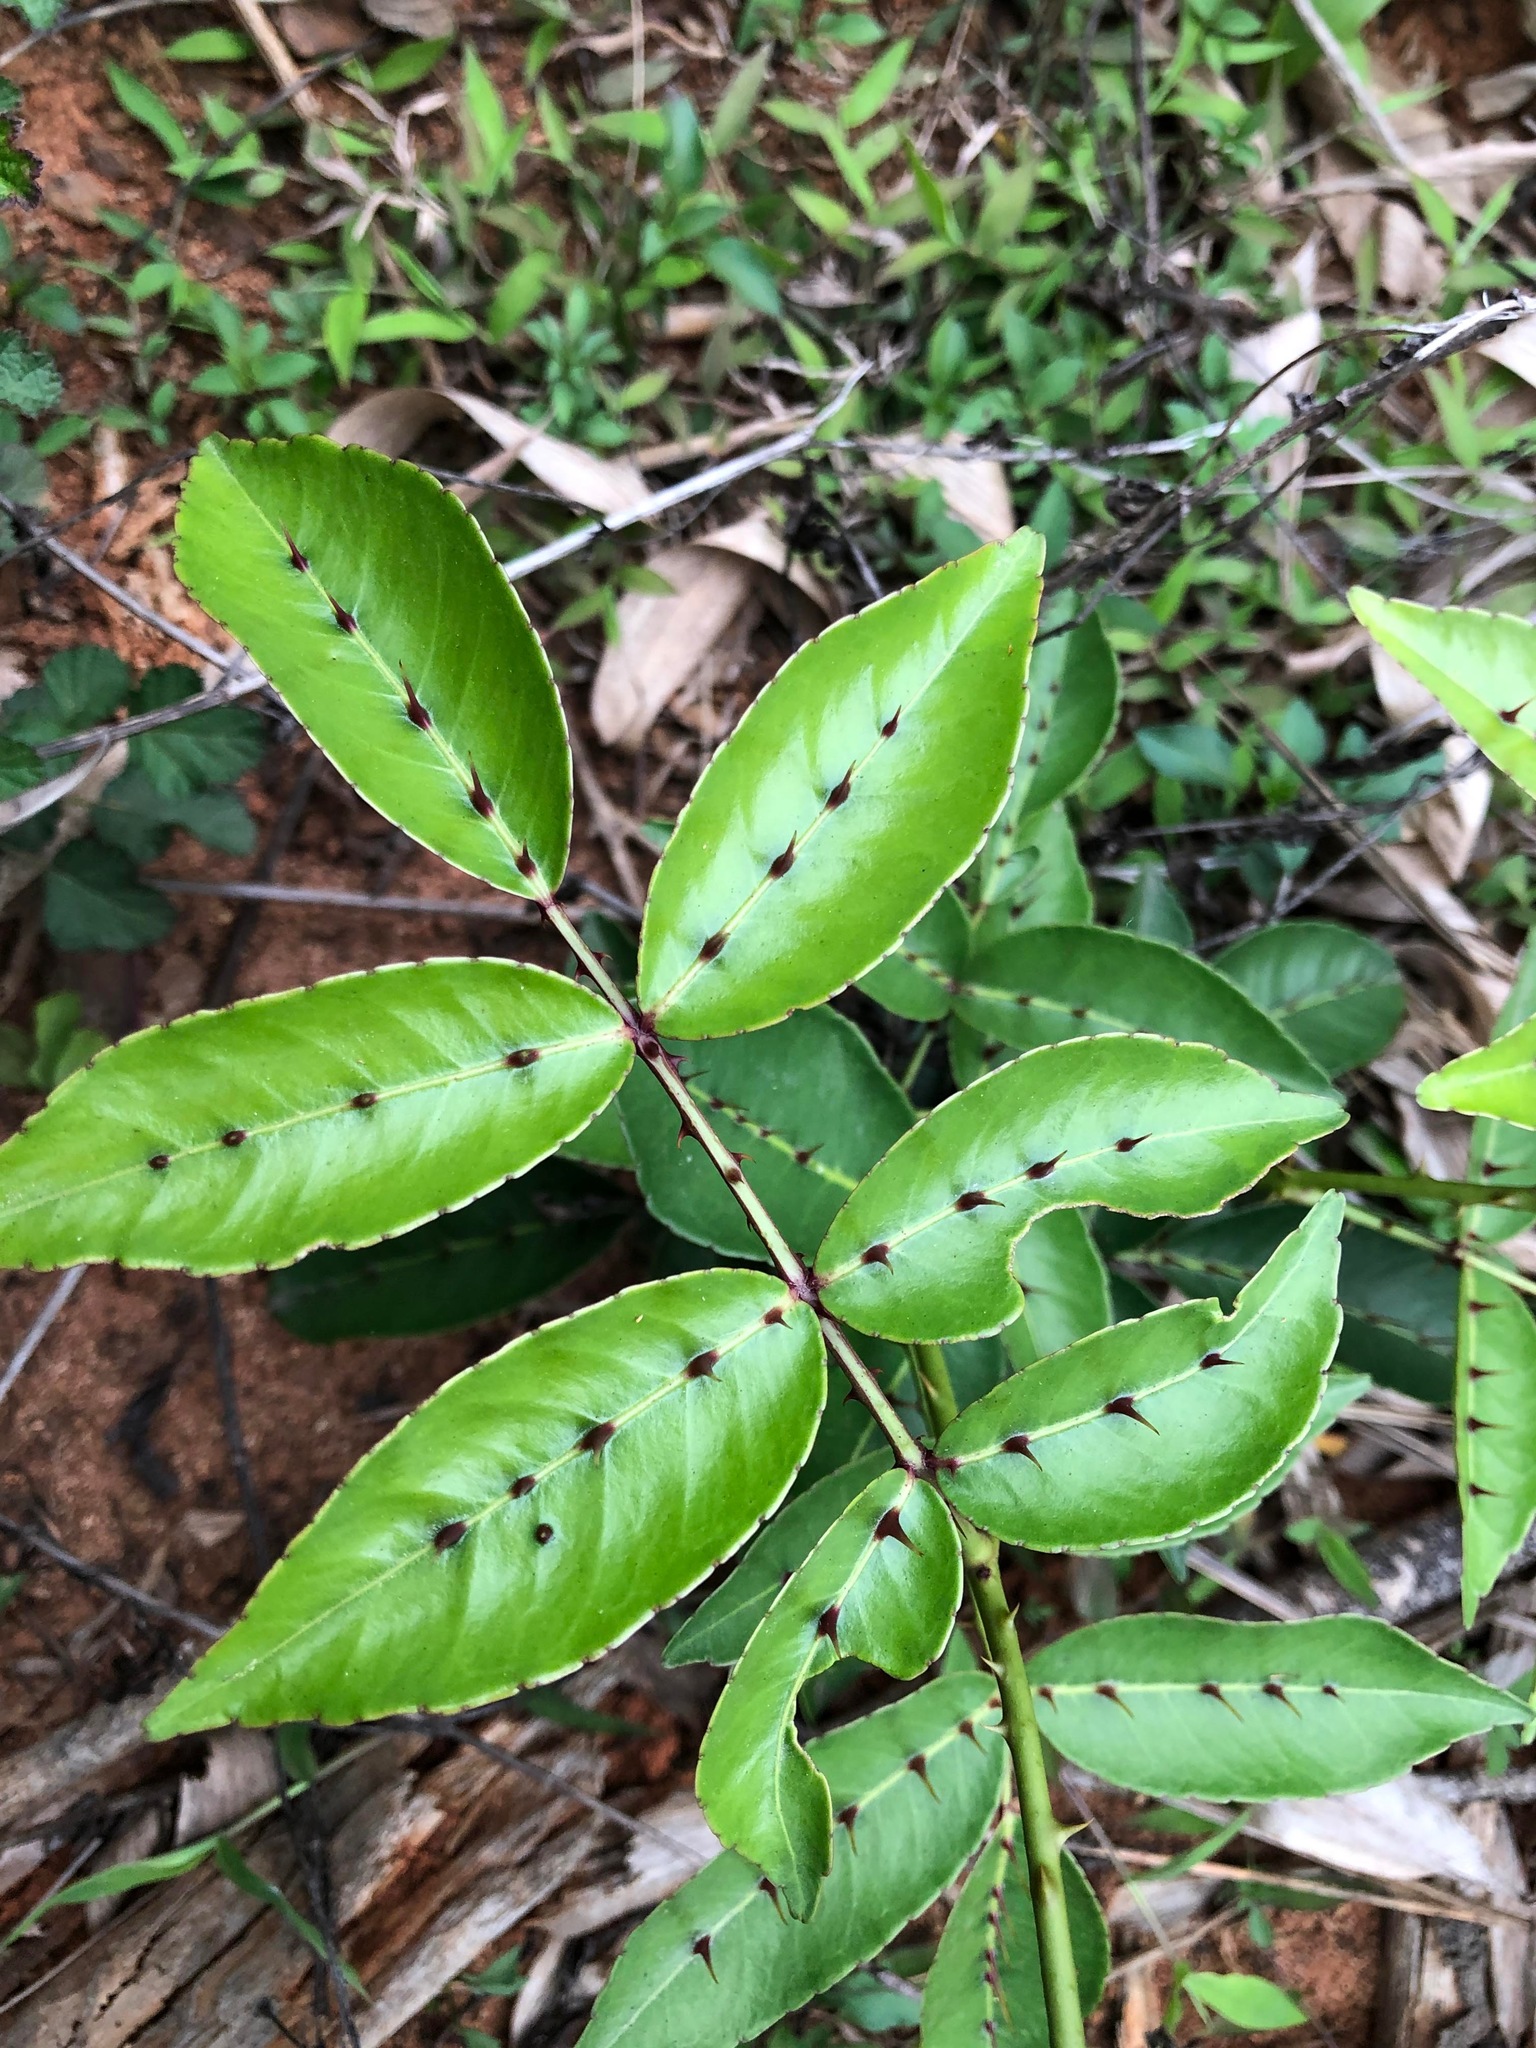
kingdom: Plantae
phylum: Tracheophyta
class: Magnoliopsida
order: Sapindales
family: Rutaceae
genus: Zanthoxylum
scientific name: Zanthoxylum nitidum
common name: Shiny-leaf prickly-ash
